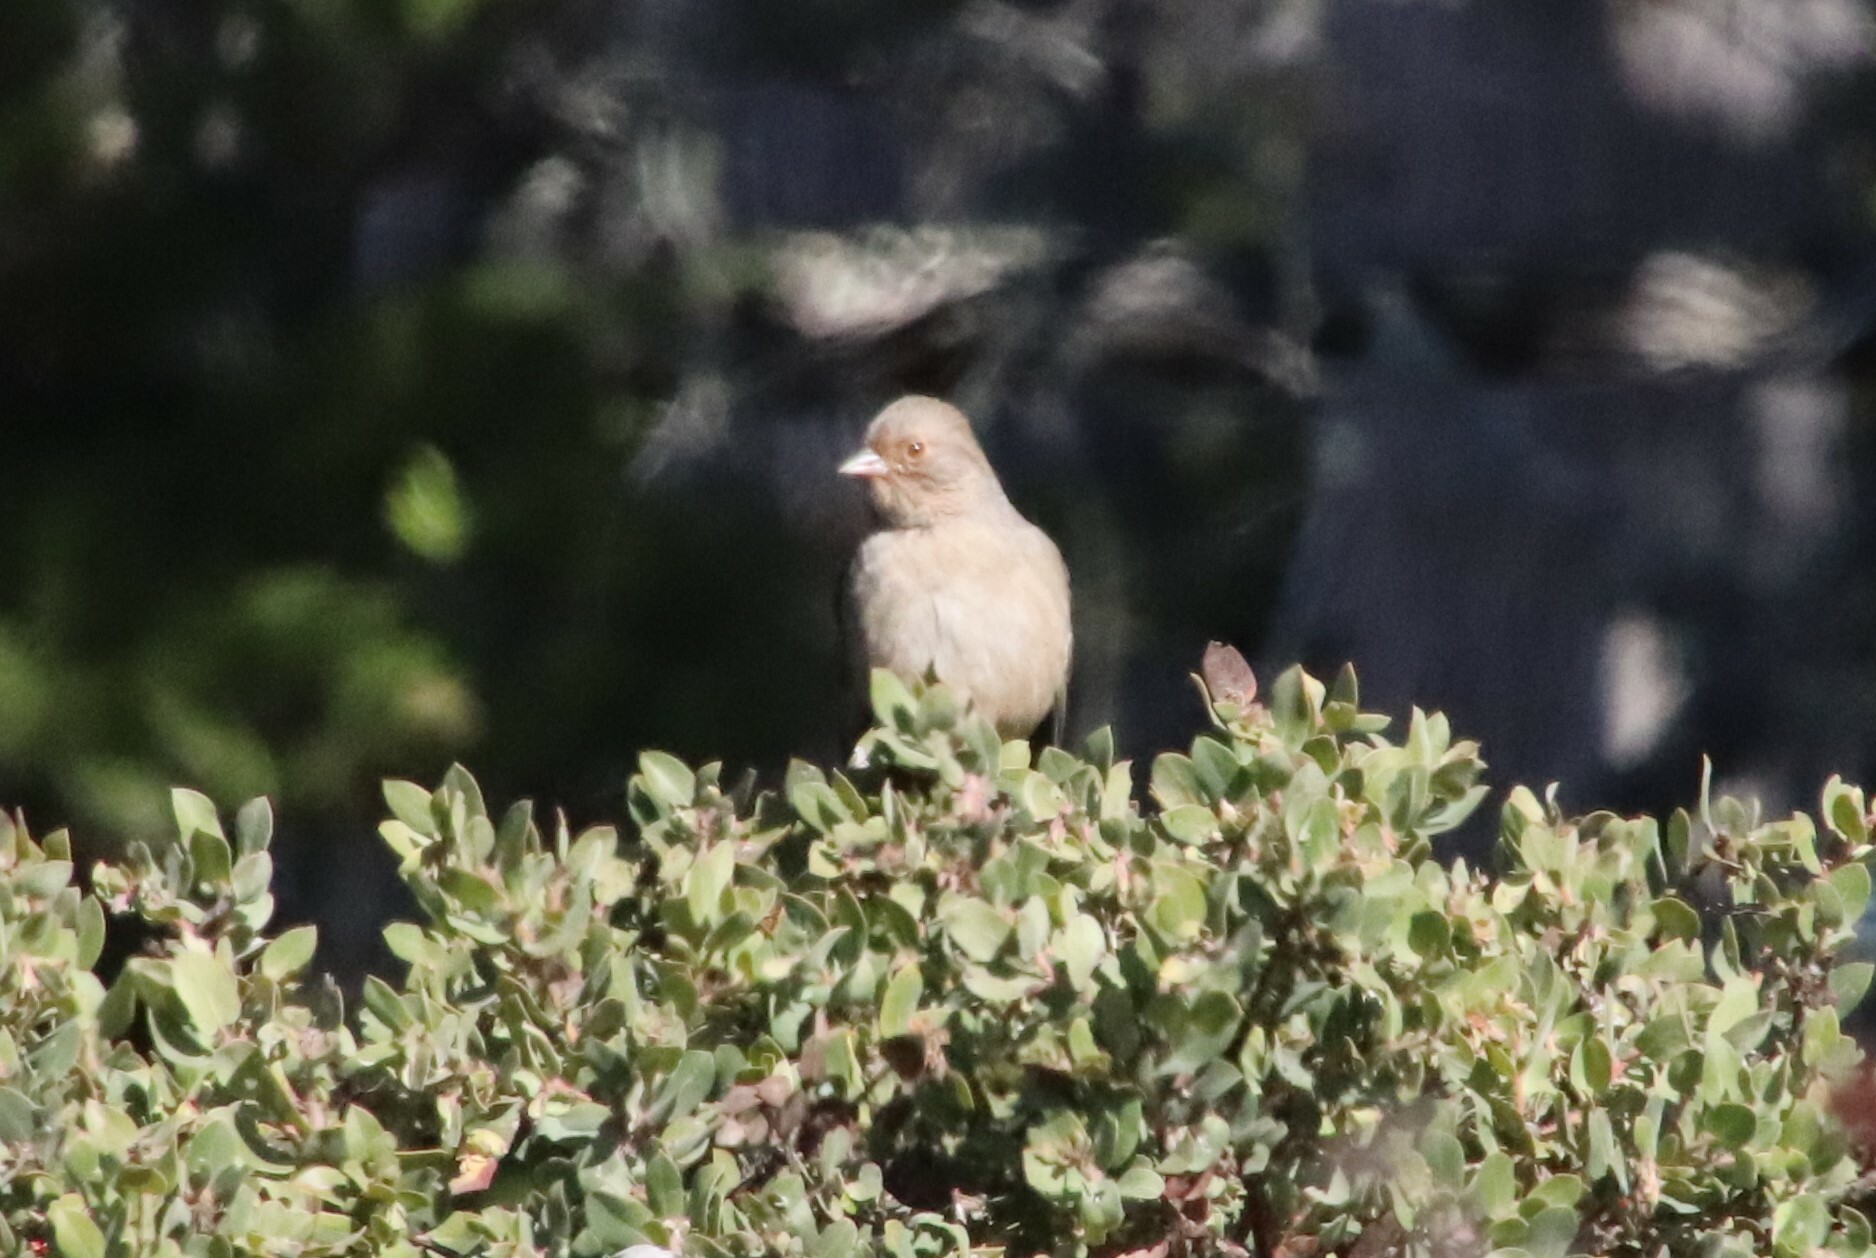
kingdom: Animalia
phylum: Chordata
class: Aves
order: Passeriformes
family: Passerellidae
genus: Melozone
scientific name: Melozone crissalis
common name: California towhee
